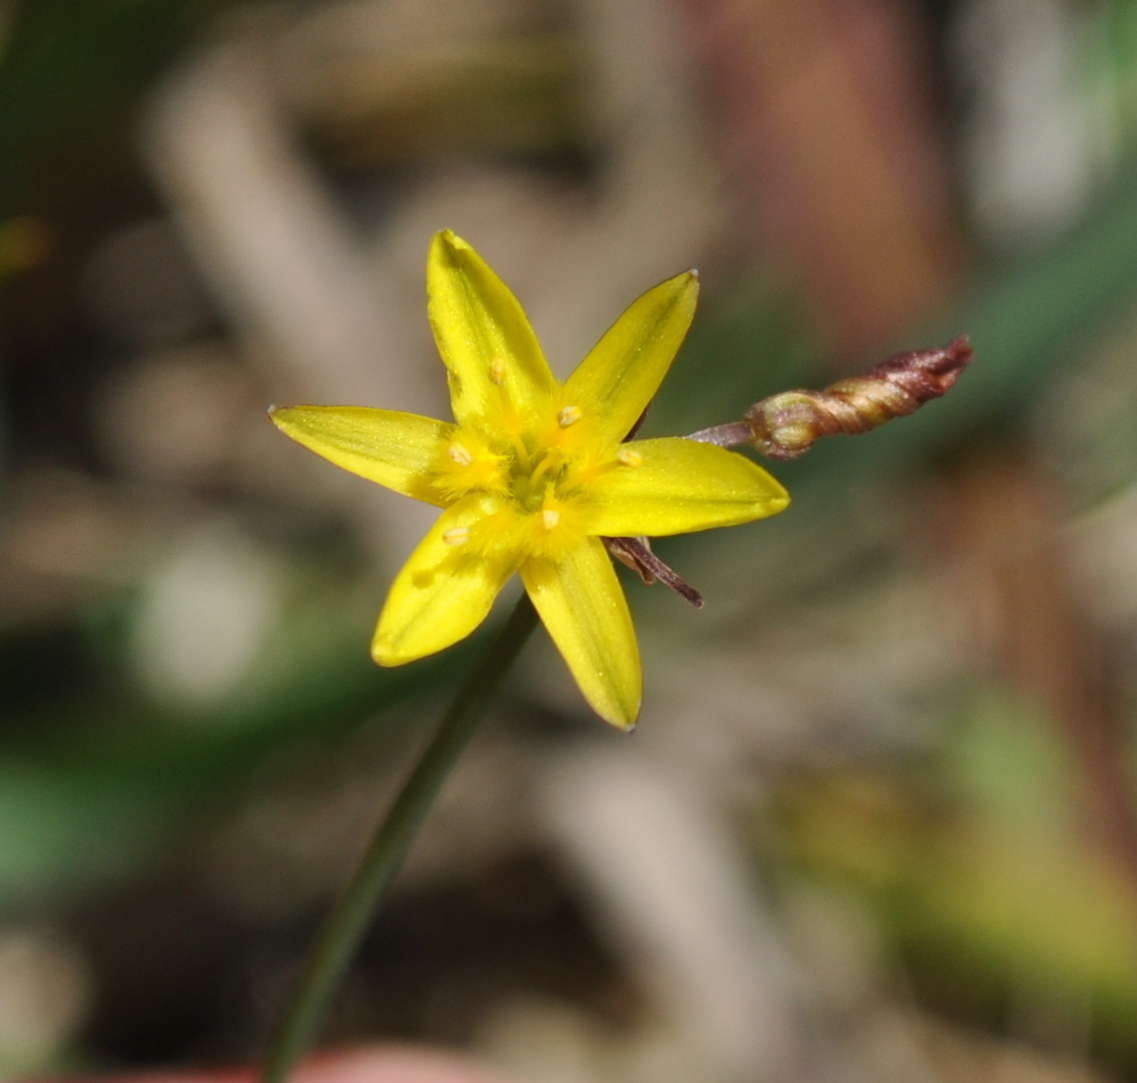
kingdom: Plantae
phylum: Tracheophyta
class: Liliopsida
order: Asparagales
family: Asphodelaceae
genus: Tricoryne
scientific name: Tricoryne elatior
